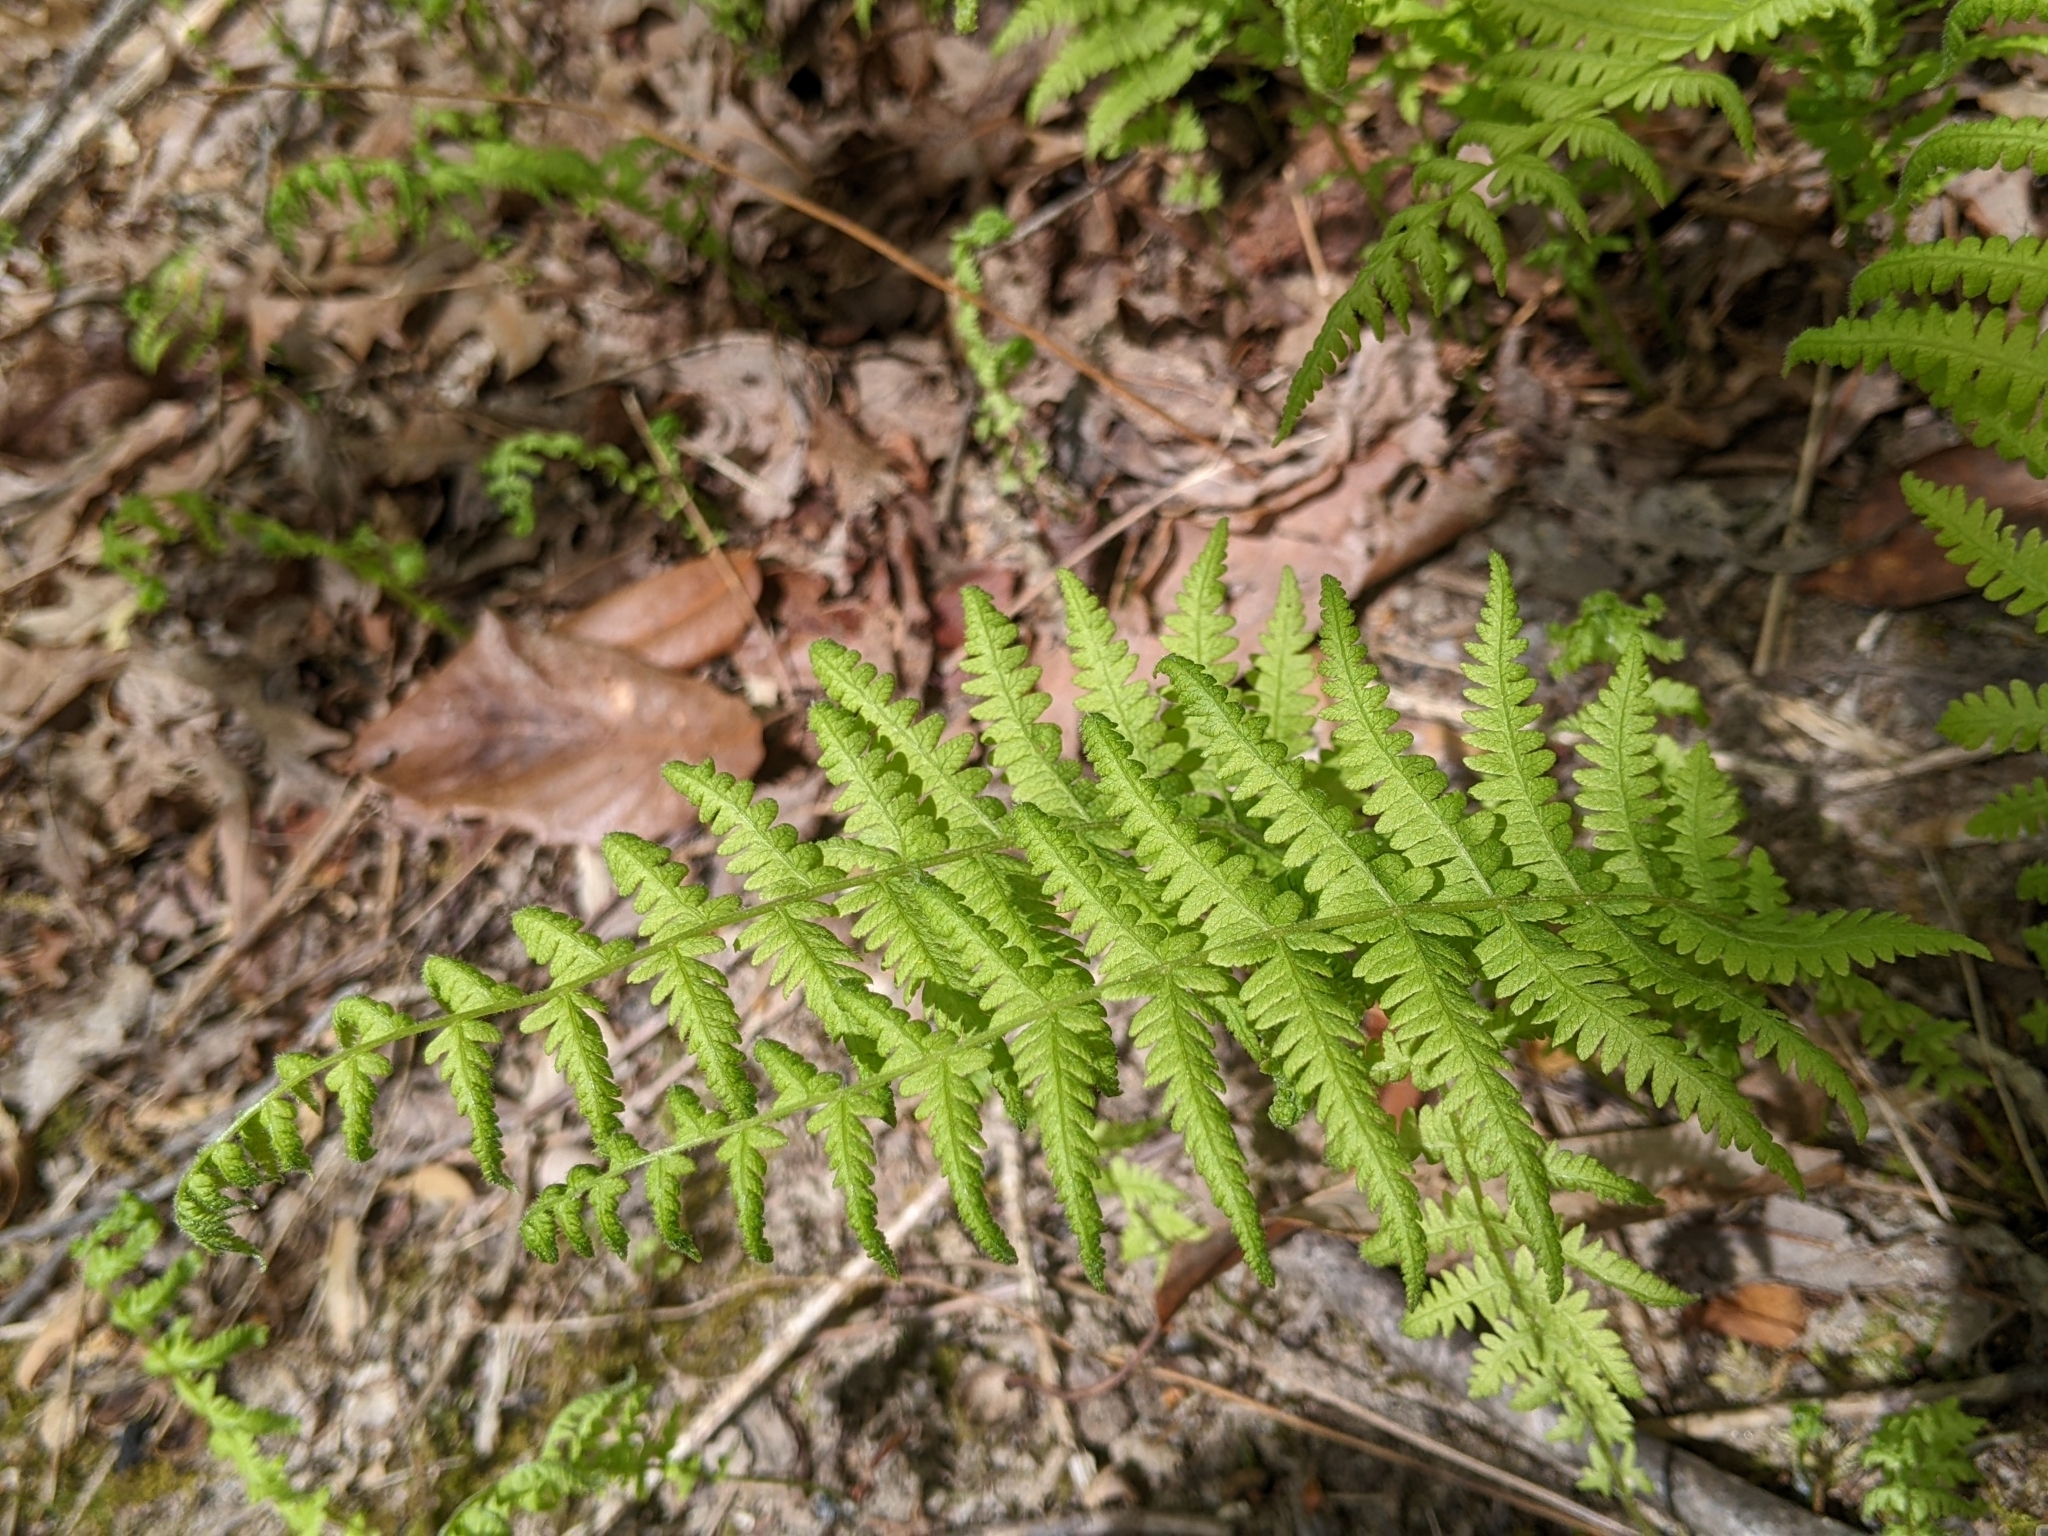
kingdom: Plantae
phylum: Tracheophyta
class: Polypodiopsida
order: Polypodiales
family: Thelypteridaceae
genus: Amauropelta
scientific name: Amauropelta noveboracensis
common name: New york fern
